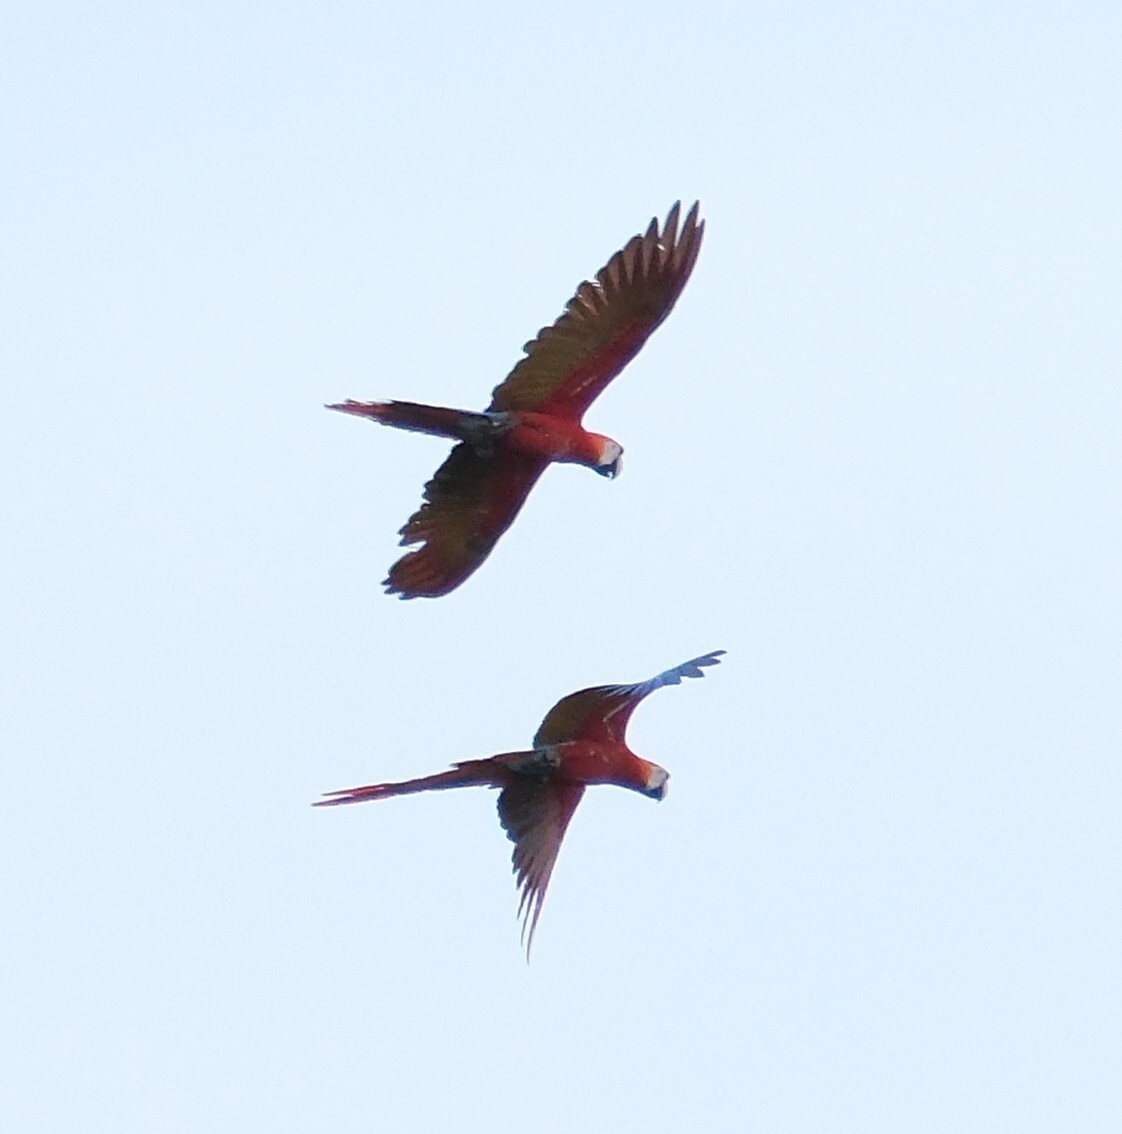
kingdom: Animalia
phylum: Chordata
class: Aves
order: Psittaciformes
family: Psittacidae
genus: Ara
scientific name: Ara macao
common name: Scarlet macaw
